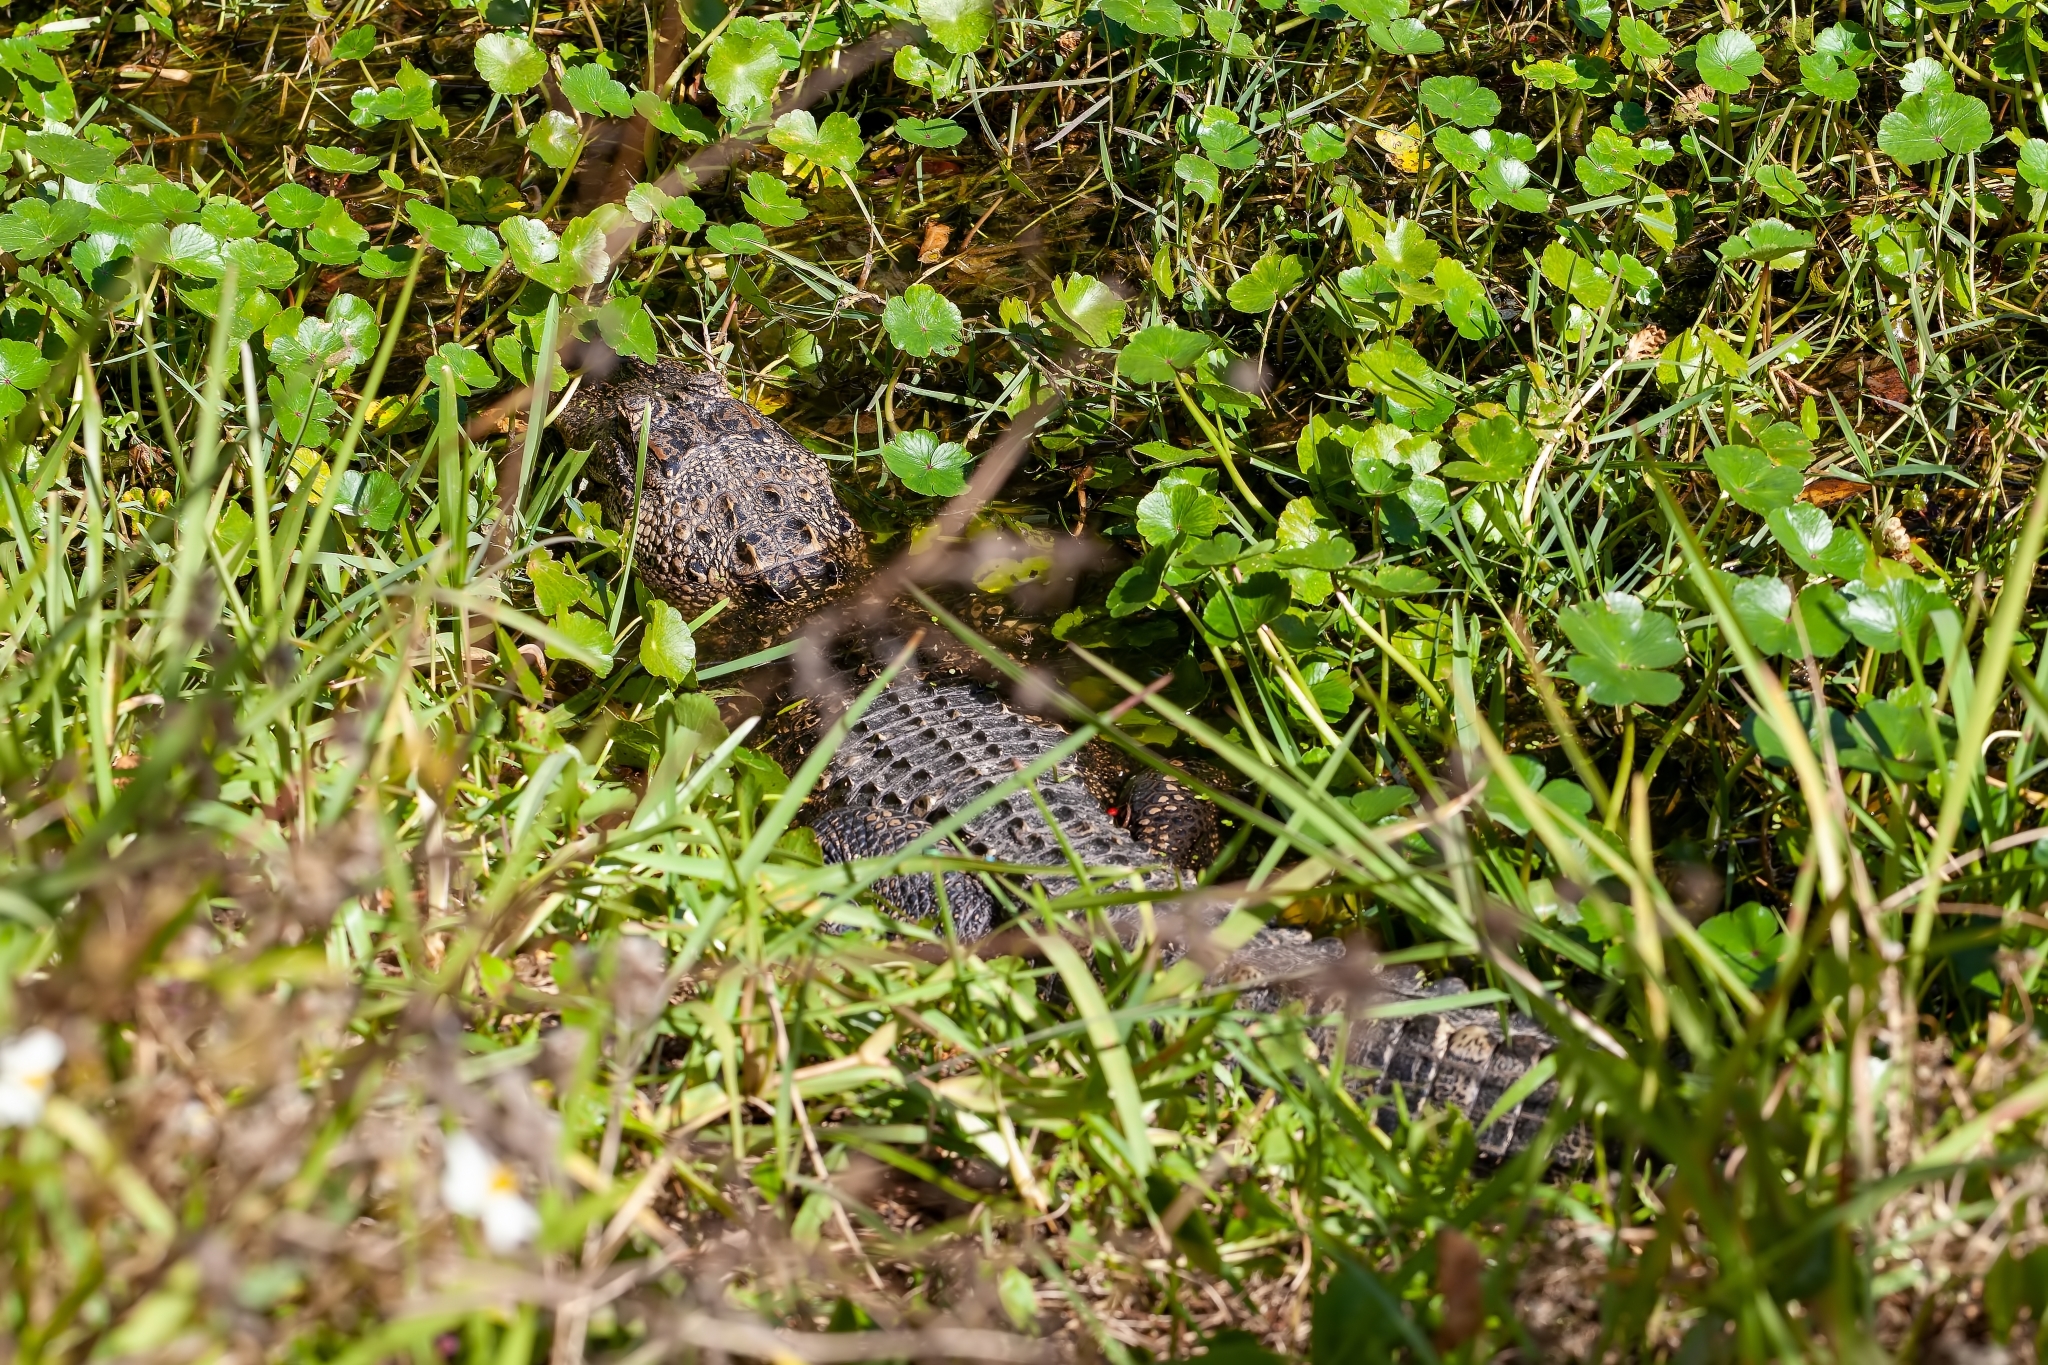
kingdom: Animalia
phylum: Chordata
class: Crocodylia
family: Alligatoridae
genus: Alligator
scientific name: Alligator mississippiensis
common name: American alligator
